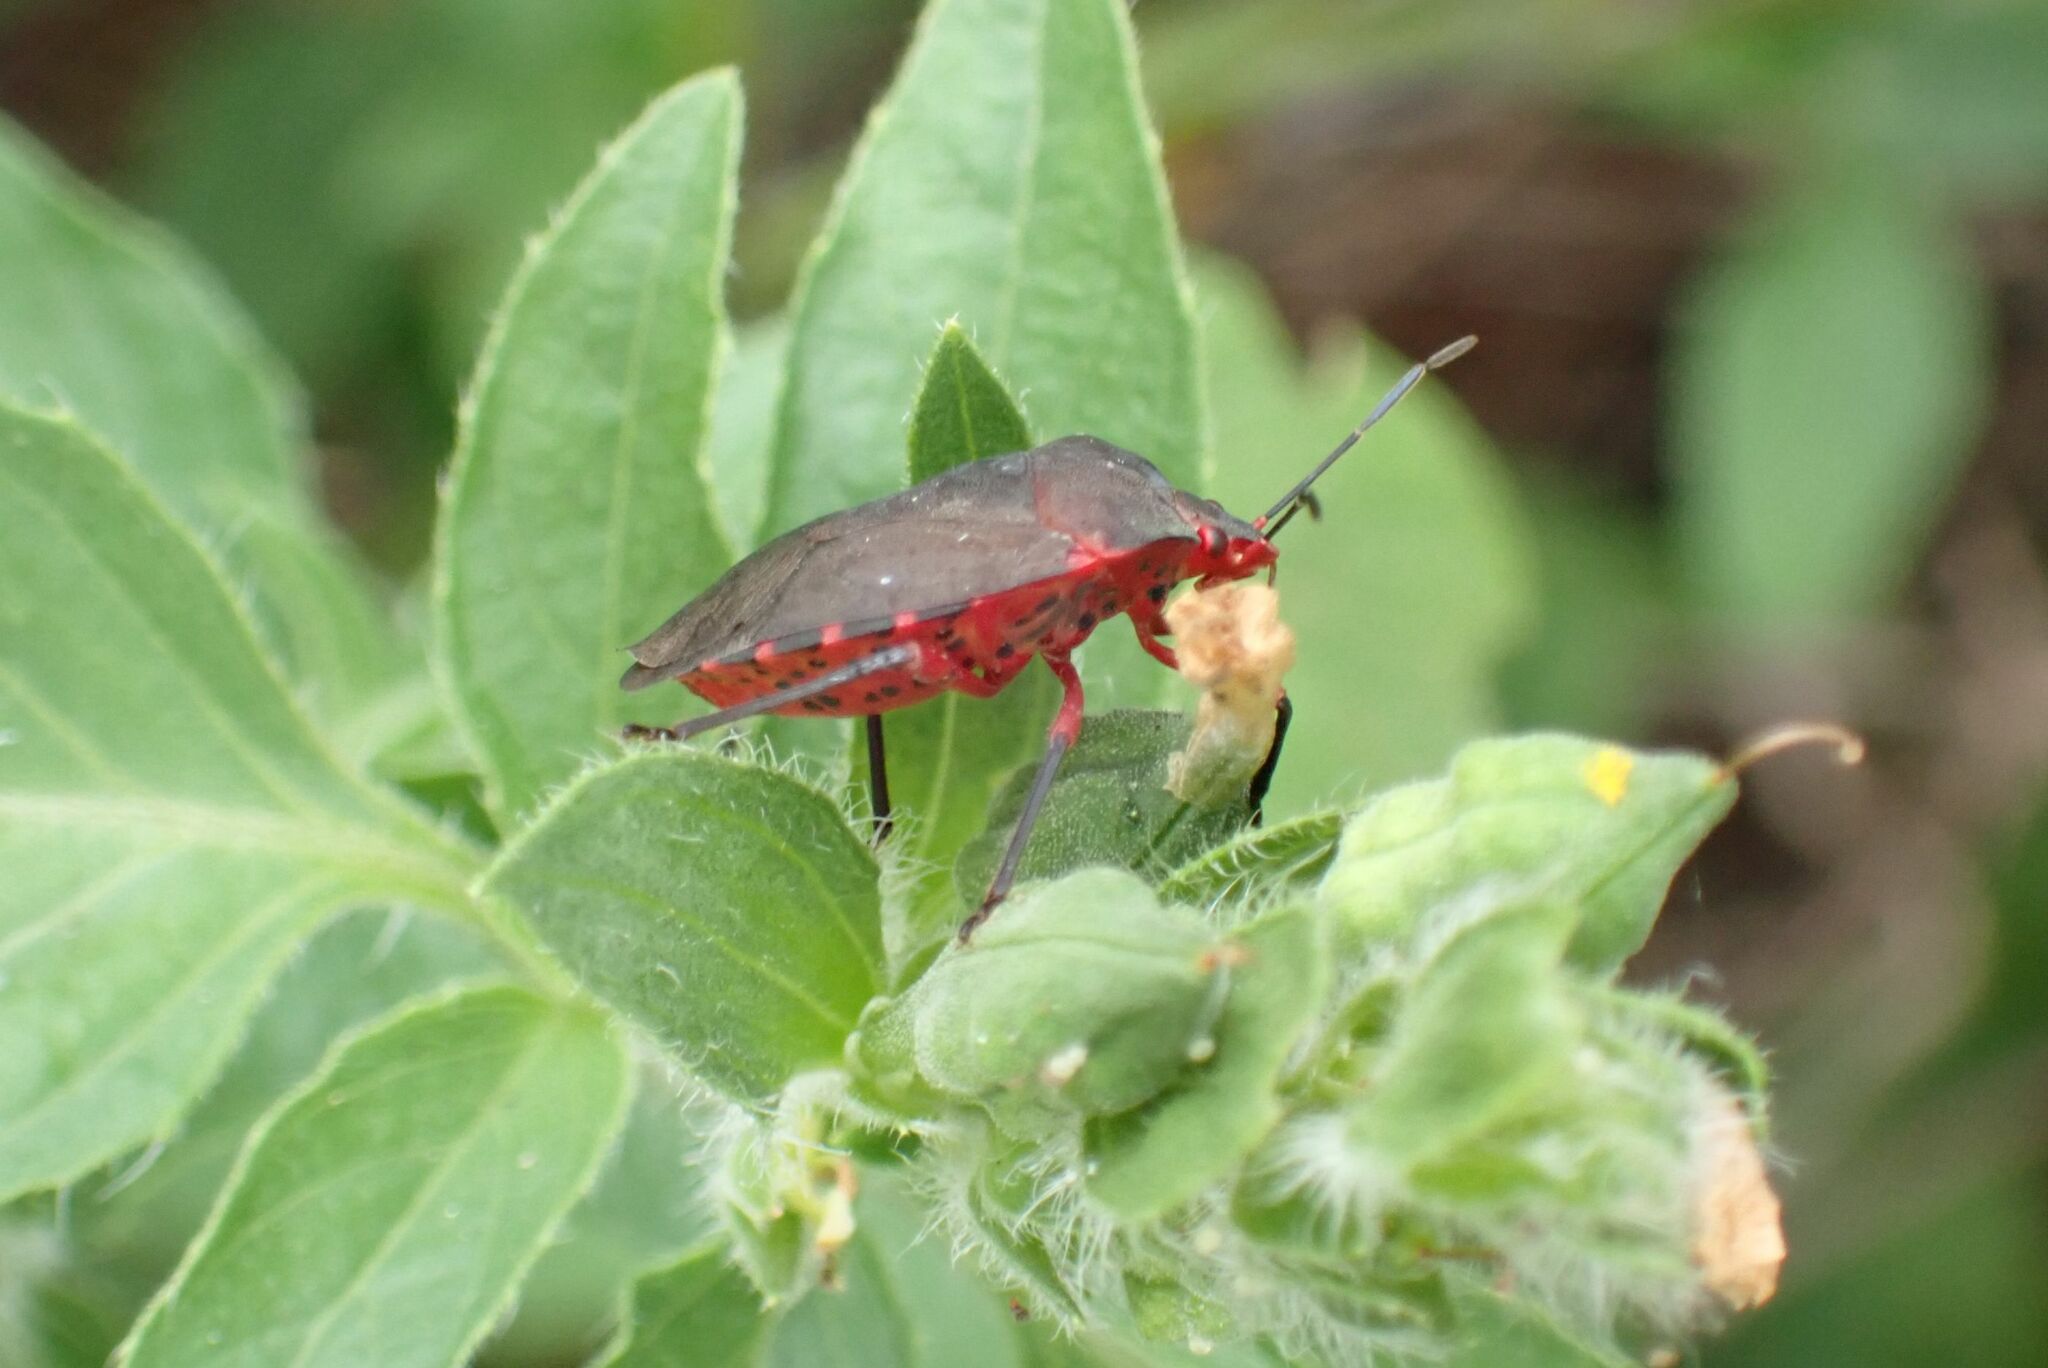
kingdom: Animalia
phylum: Arthropoda
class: Insecta
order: Hemiptera
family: Pentatomidae
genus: Caura
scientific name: Caura rufiventris
